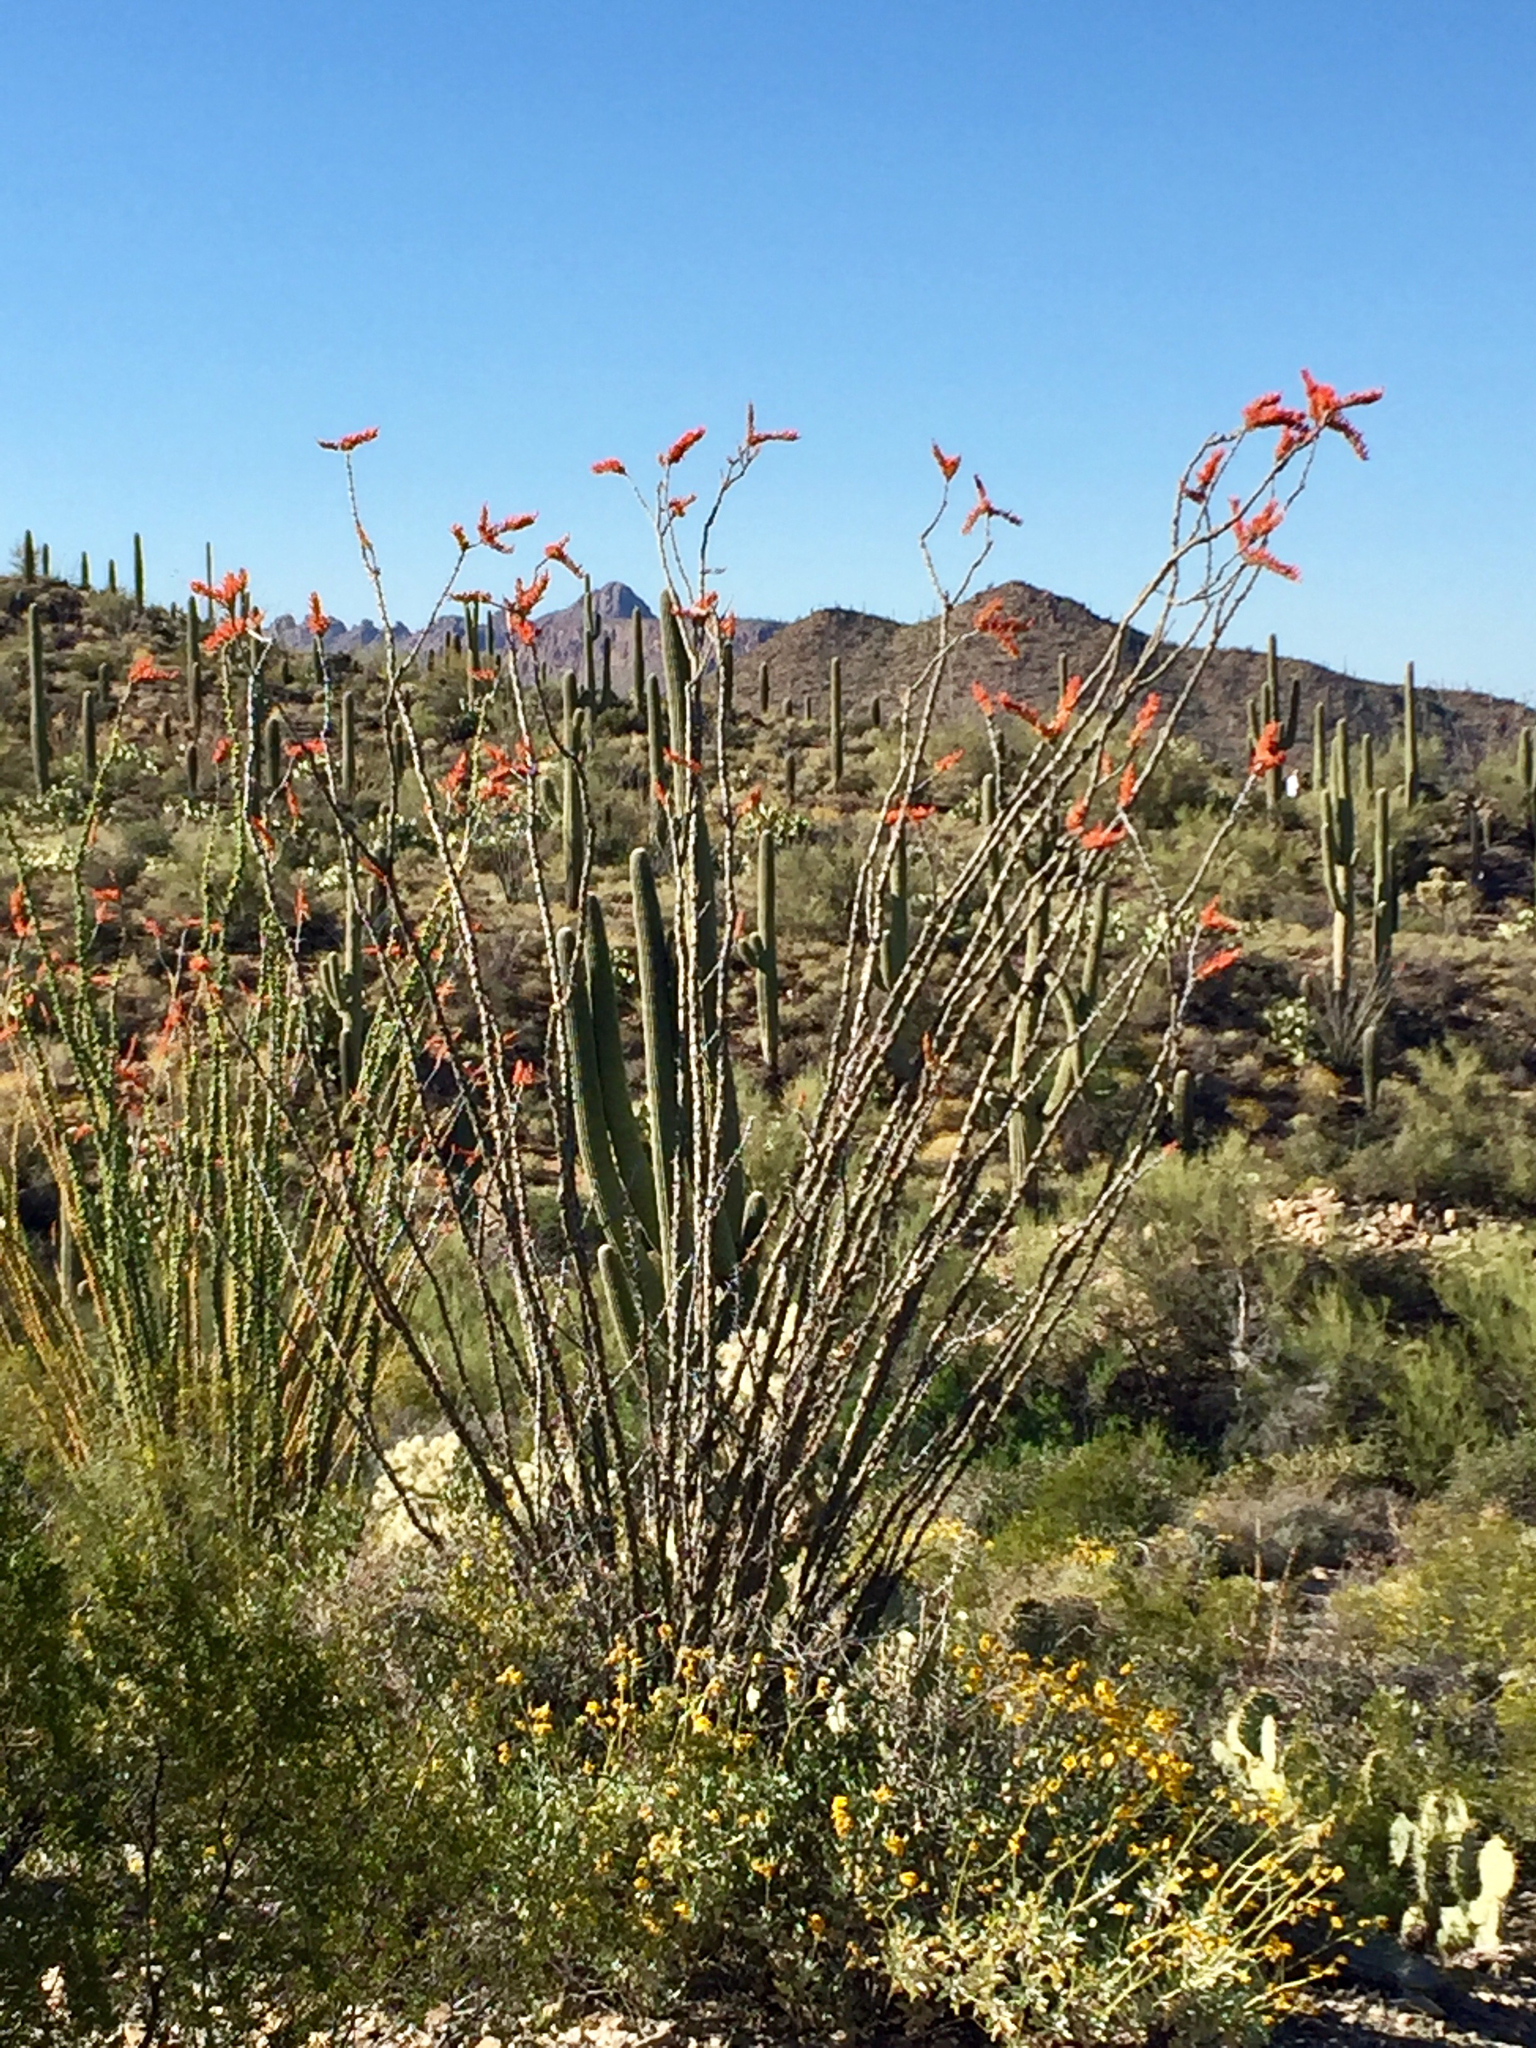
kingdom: Plantae
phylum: Tracheophyta
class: Magnoliopsida
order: Ericales
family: Fouquieriaceae
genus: Fouquieria
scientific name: Fouquieria splendens
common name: Vine-cactus
